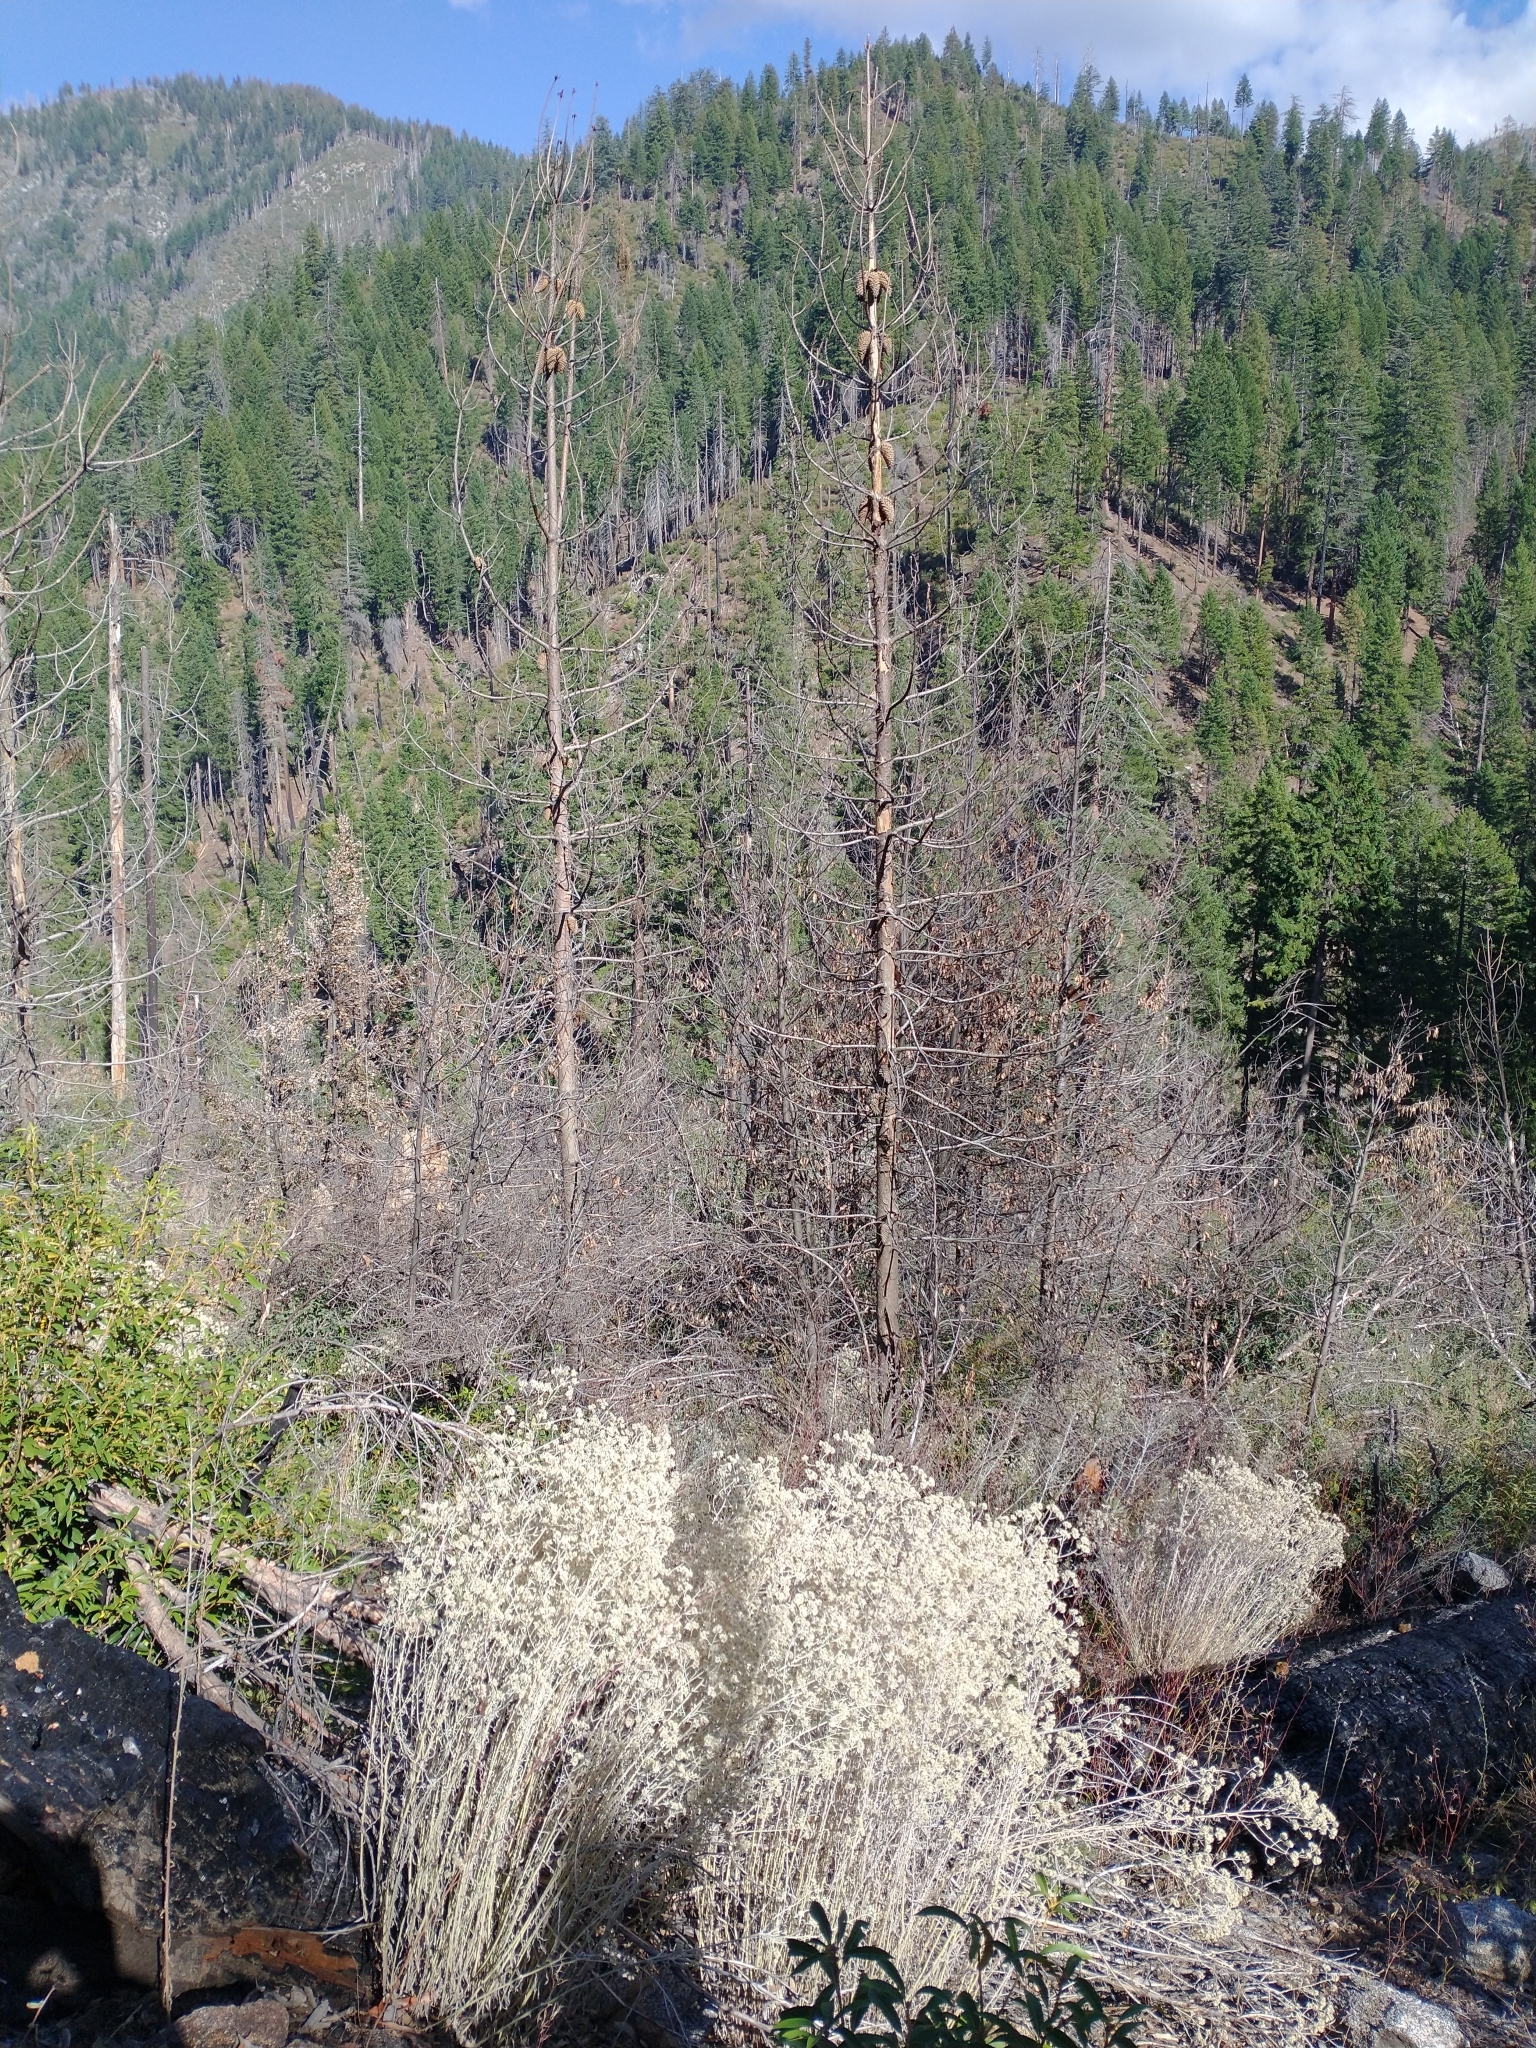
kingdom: Plantae
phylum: Tracheophyta
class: Pinopsida
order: Pinales
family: Pinaceae
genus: Pinus
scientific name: Pinus attenuata
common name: Knobcone pine
